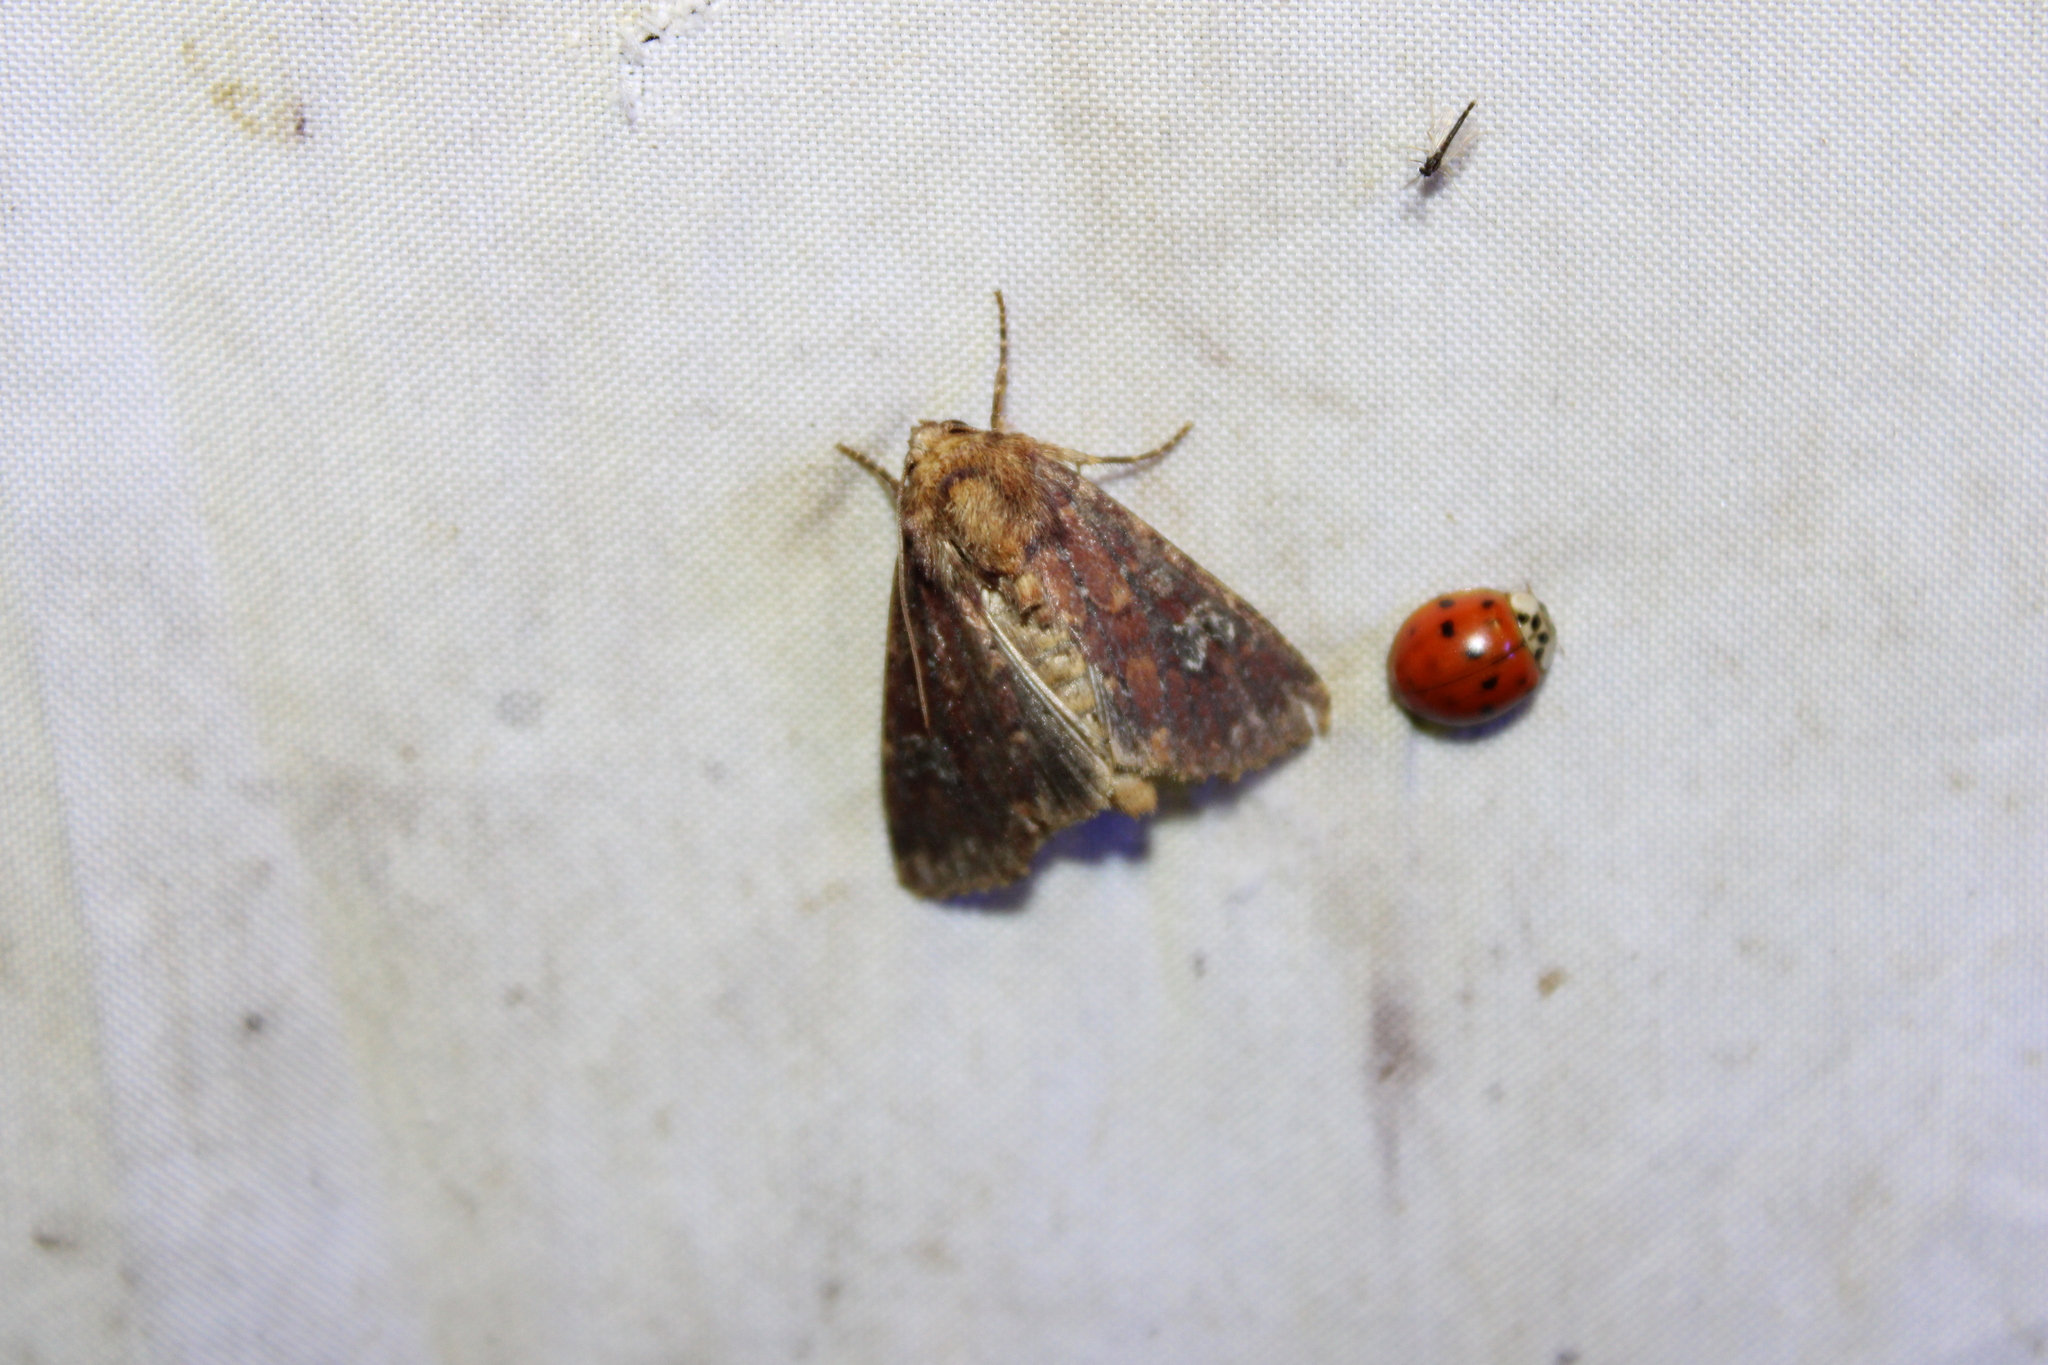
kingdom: Animalia
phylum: Arthropoda
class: Insecta
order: Lepidoptera
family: Noctuidae
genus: Sideridis
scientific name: Sideridis congermana
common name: German cousin moth
